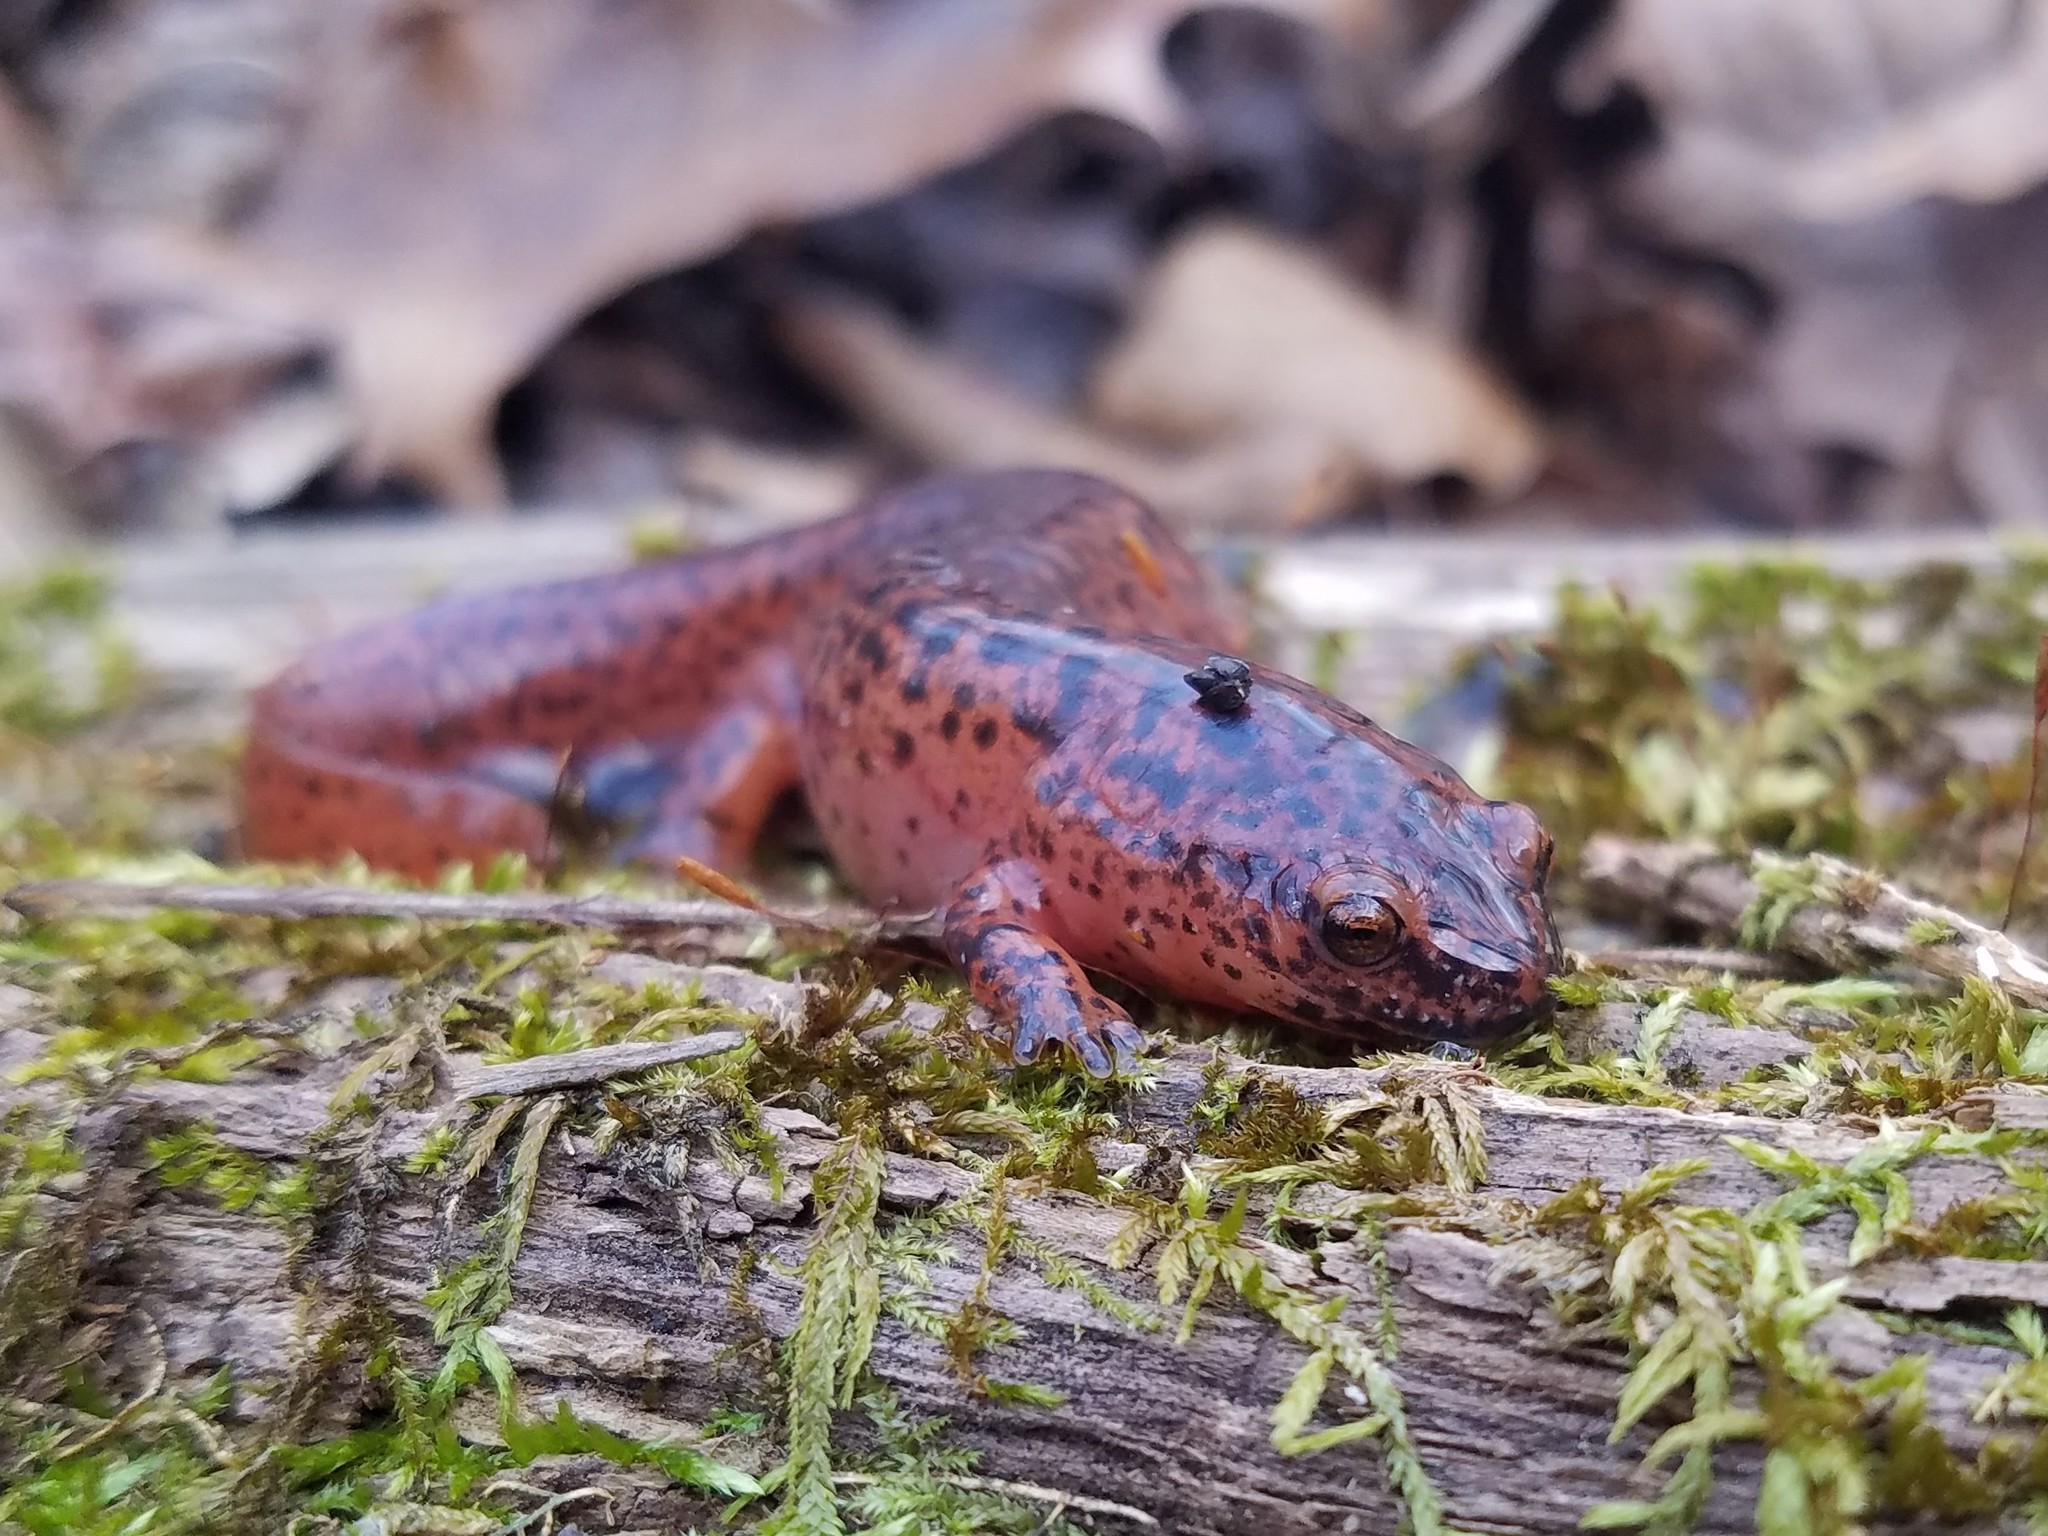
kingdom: Animalia
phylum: Chordata
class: Amphibia
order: Caudata
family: Plethodontidae
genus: Pseudotriton
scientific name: Pseudotriton ruber
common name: Red salamander
